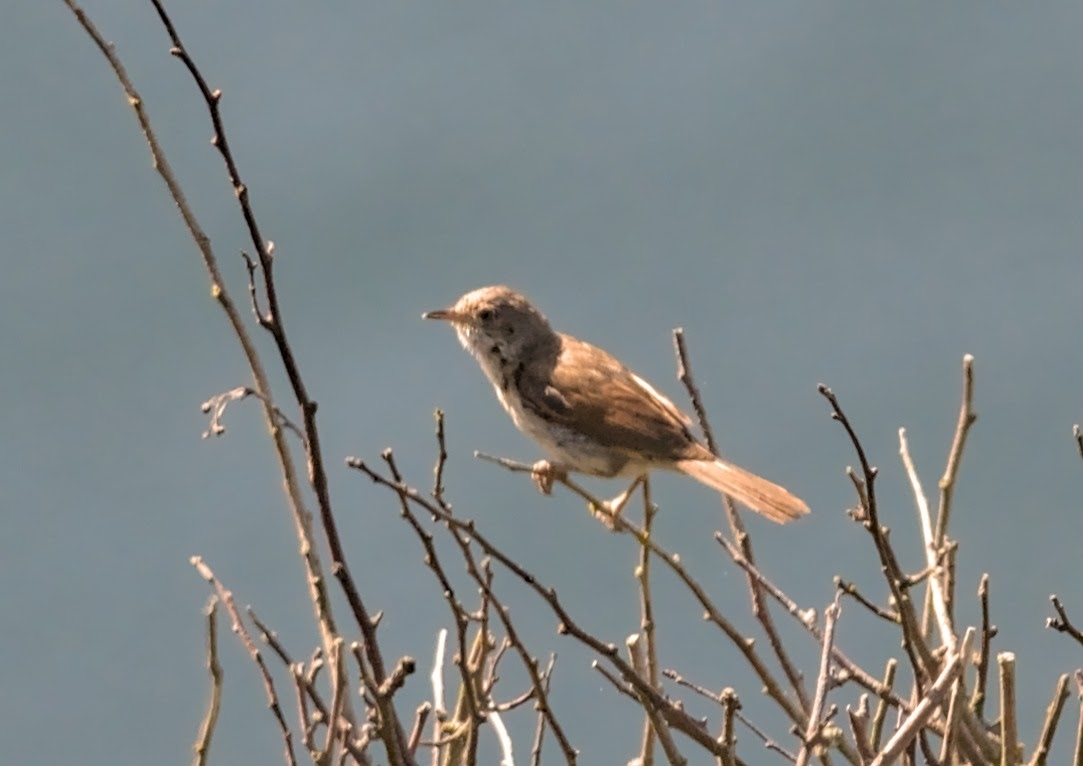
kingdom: Animalia
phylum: Chordata
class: Aves
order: Passeriformes
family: Sylviidae
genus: Sylvia
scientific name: Sylvia communis
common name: Common whitethroat
